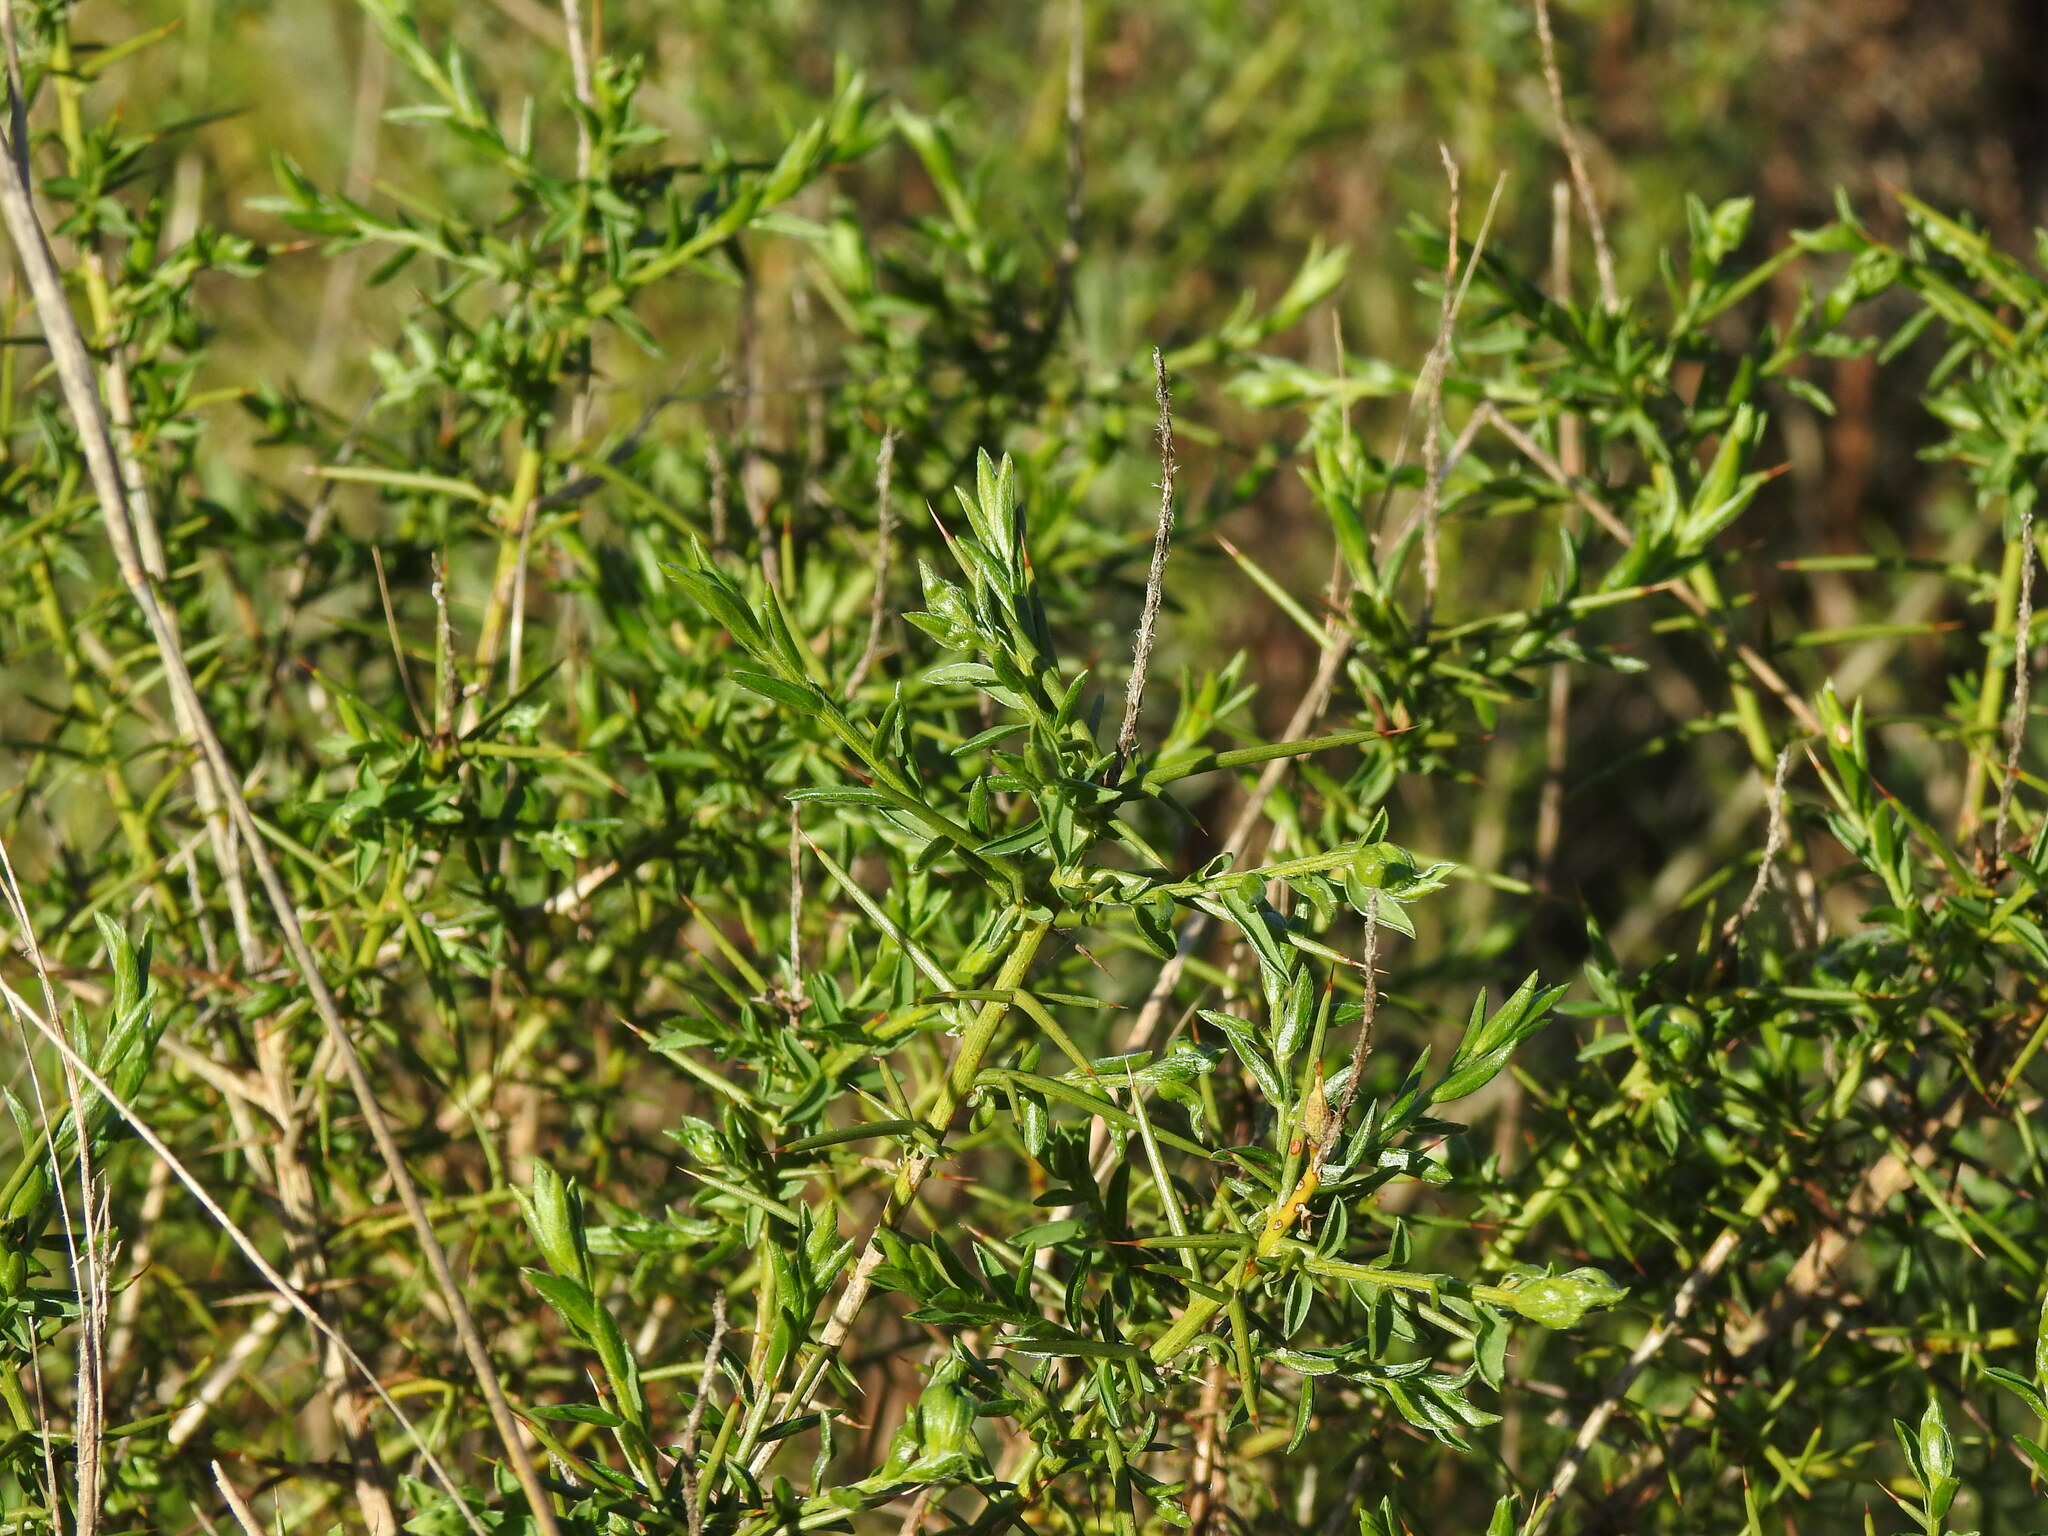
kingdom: Plantae
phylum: Tracheophyta
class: Magnoliopsida
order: Fabales
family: Fabaceae
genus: Genista
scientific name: Genista hirsuta
